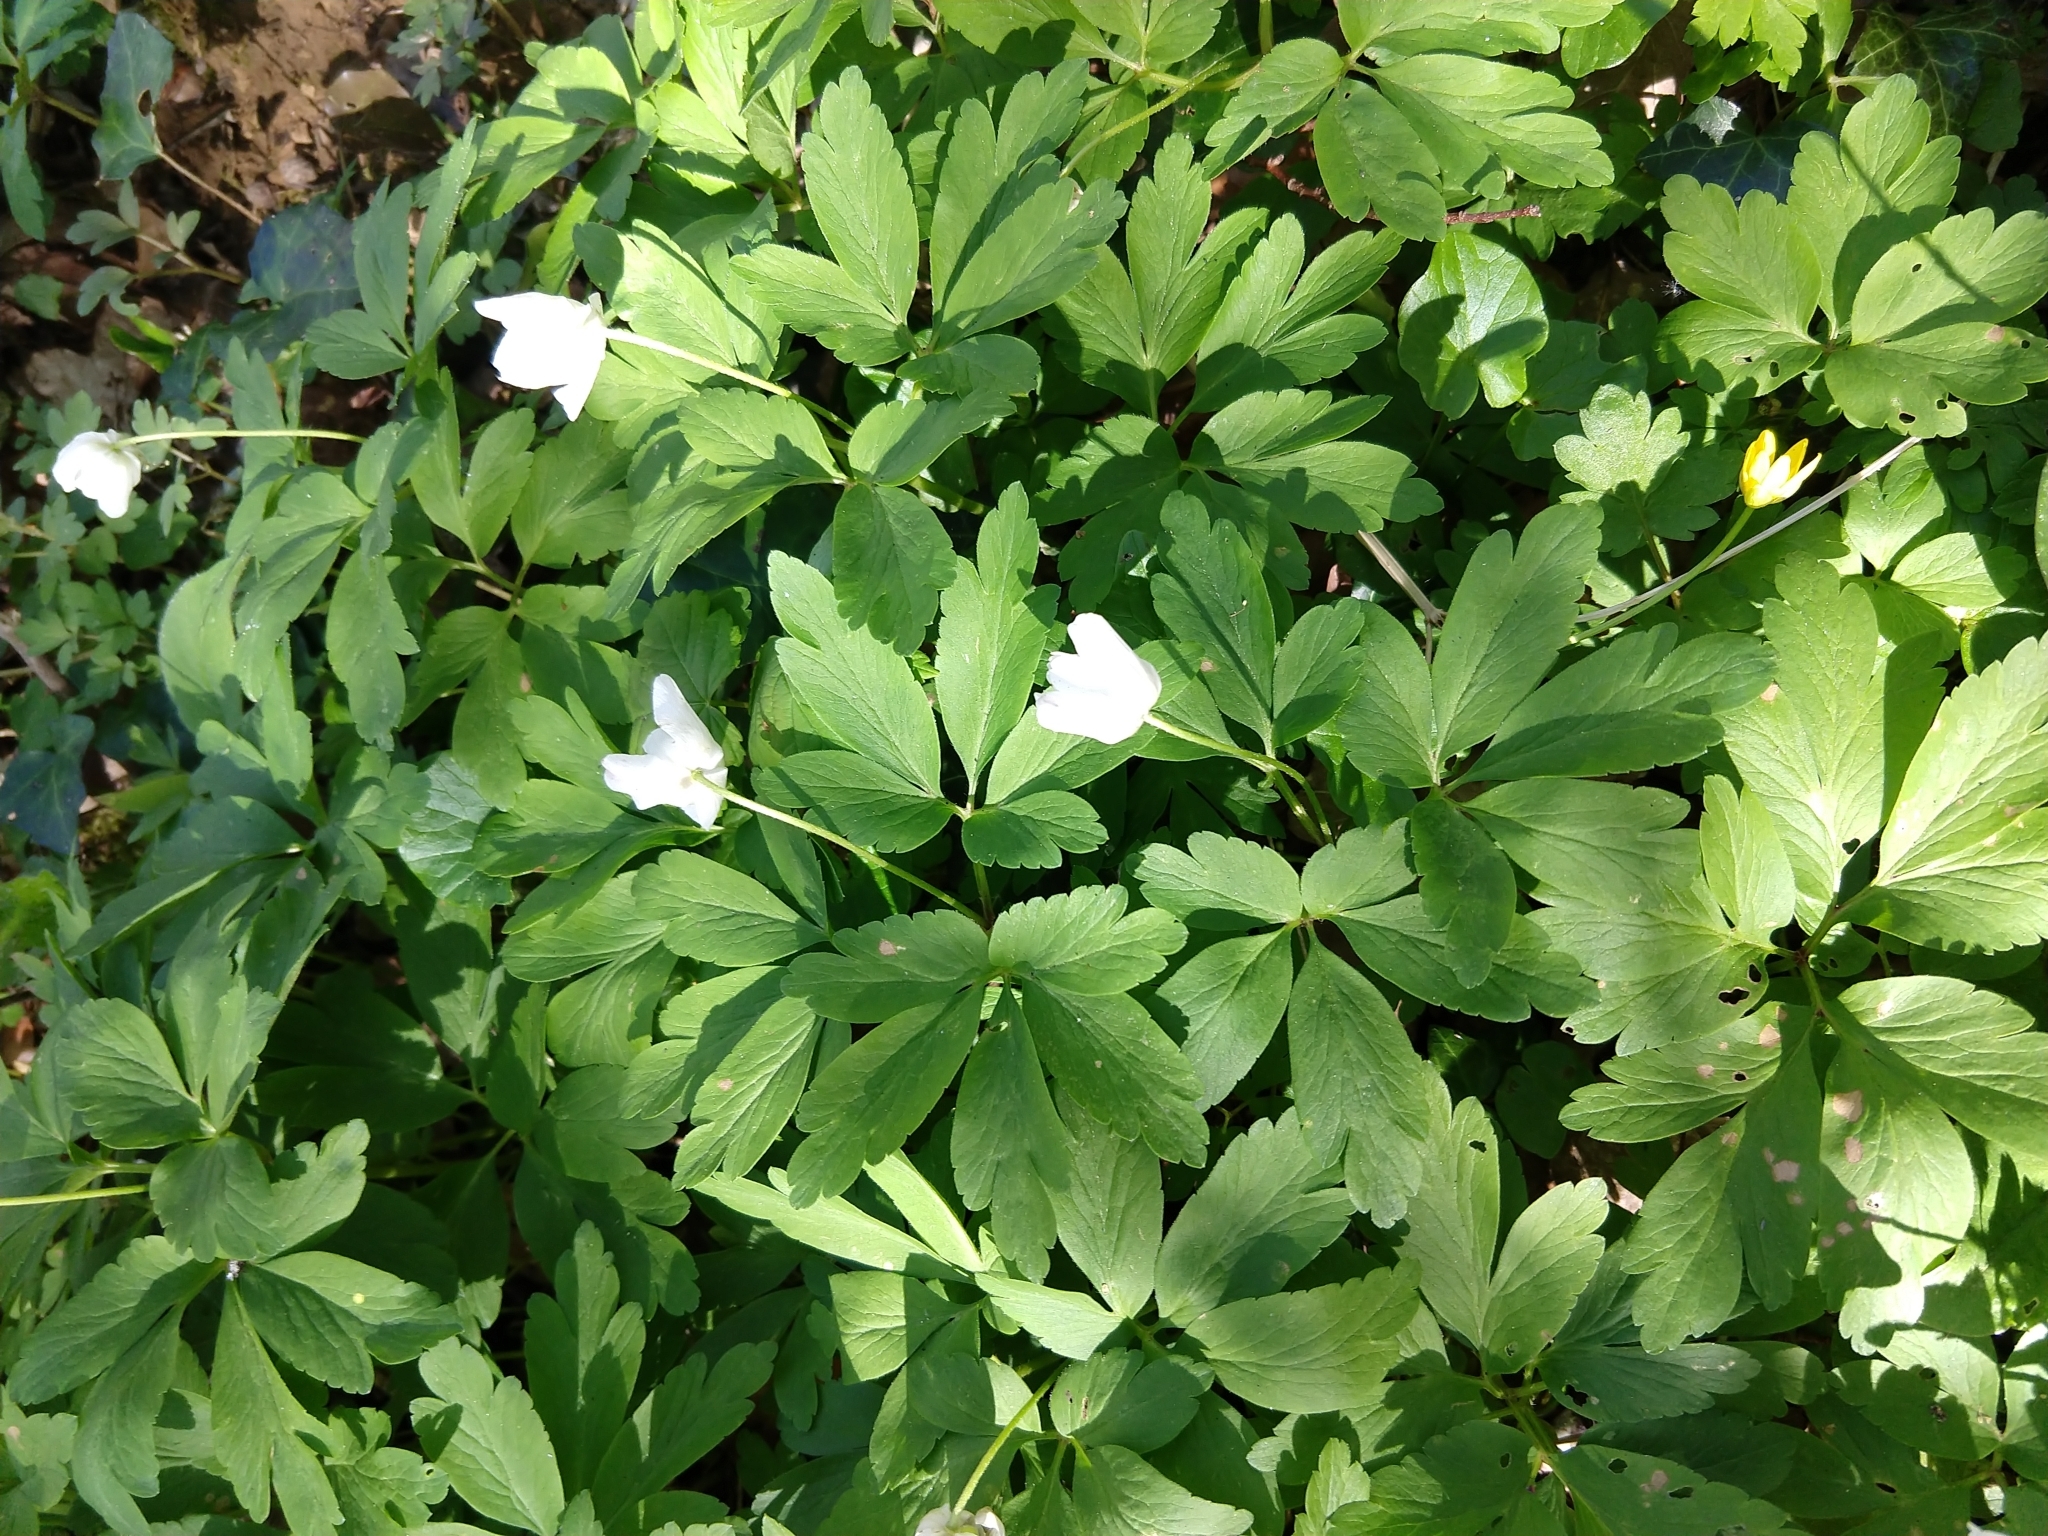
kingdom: Plantae
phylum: Tracheophyta
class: Magnoliopsida
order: Ranunculales
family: Ranunculaceae
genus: Anemone
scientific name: Anemone nemorosa
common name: Wood anemone
